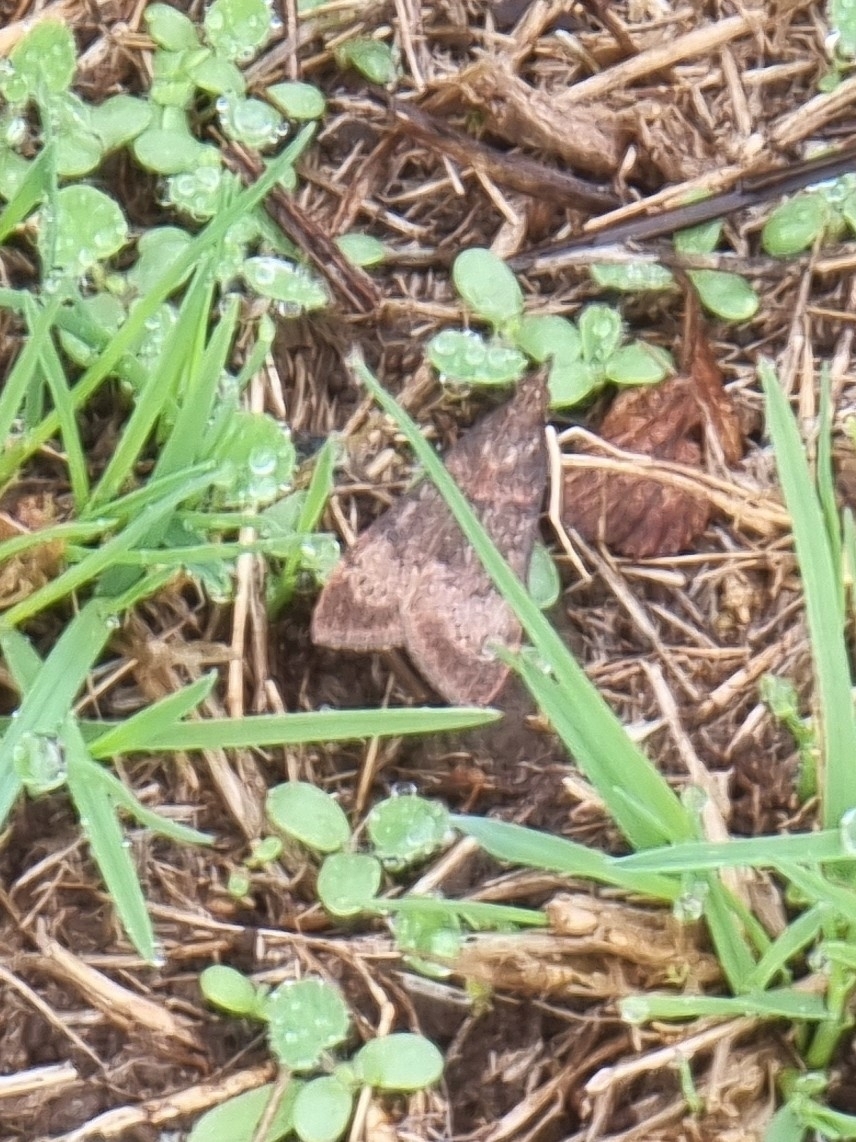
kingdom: Animalia
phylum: Arthropoda
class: Insecta
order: Lepidoptera
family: Crambidae
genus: Uresiphita
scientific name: Uresiphita gilvata
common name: Yellow-underwing pearl
